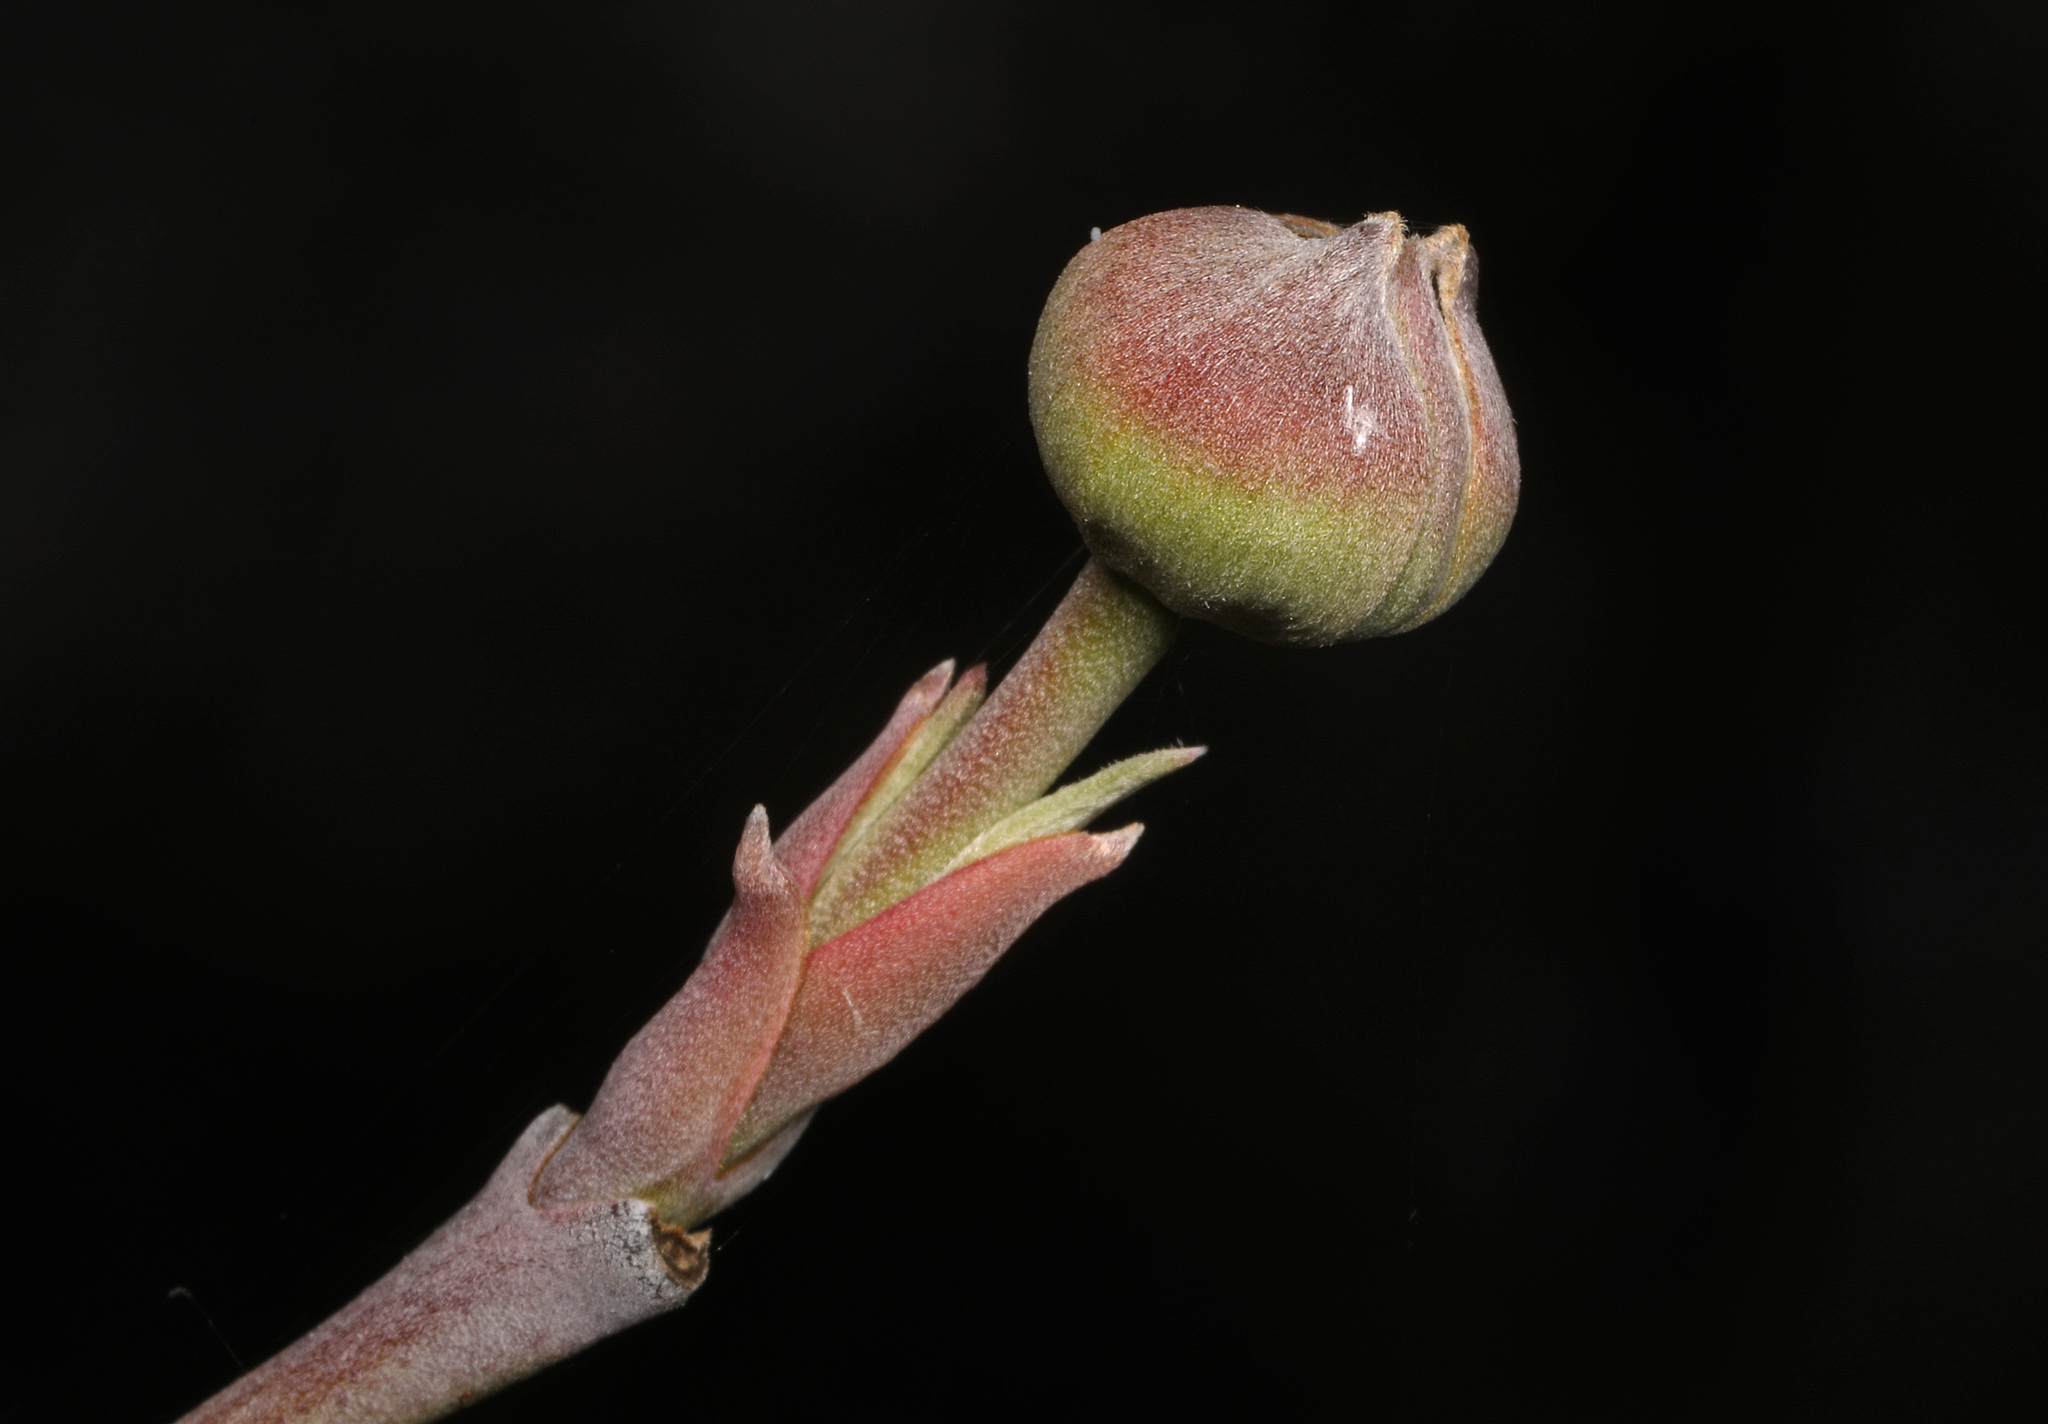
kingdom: Plantae
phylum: Tracheophyta
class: Magnoliopsida
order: Cornales
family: Cornaceae
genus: Cornus
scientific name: Cornus florida
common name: Flowering dogwood
